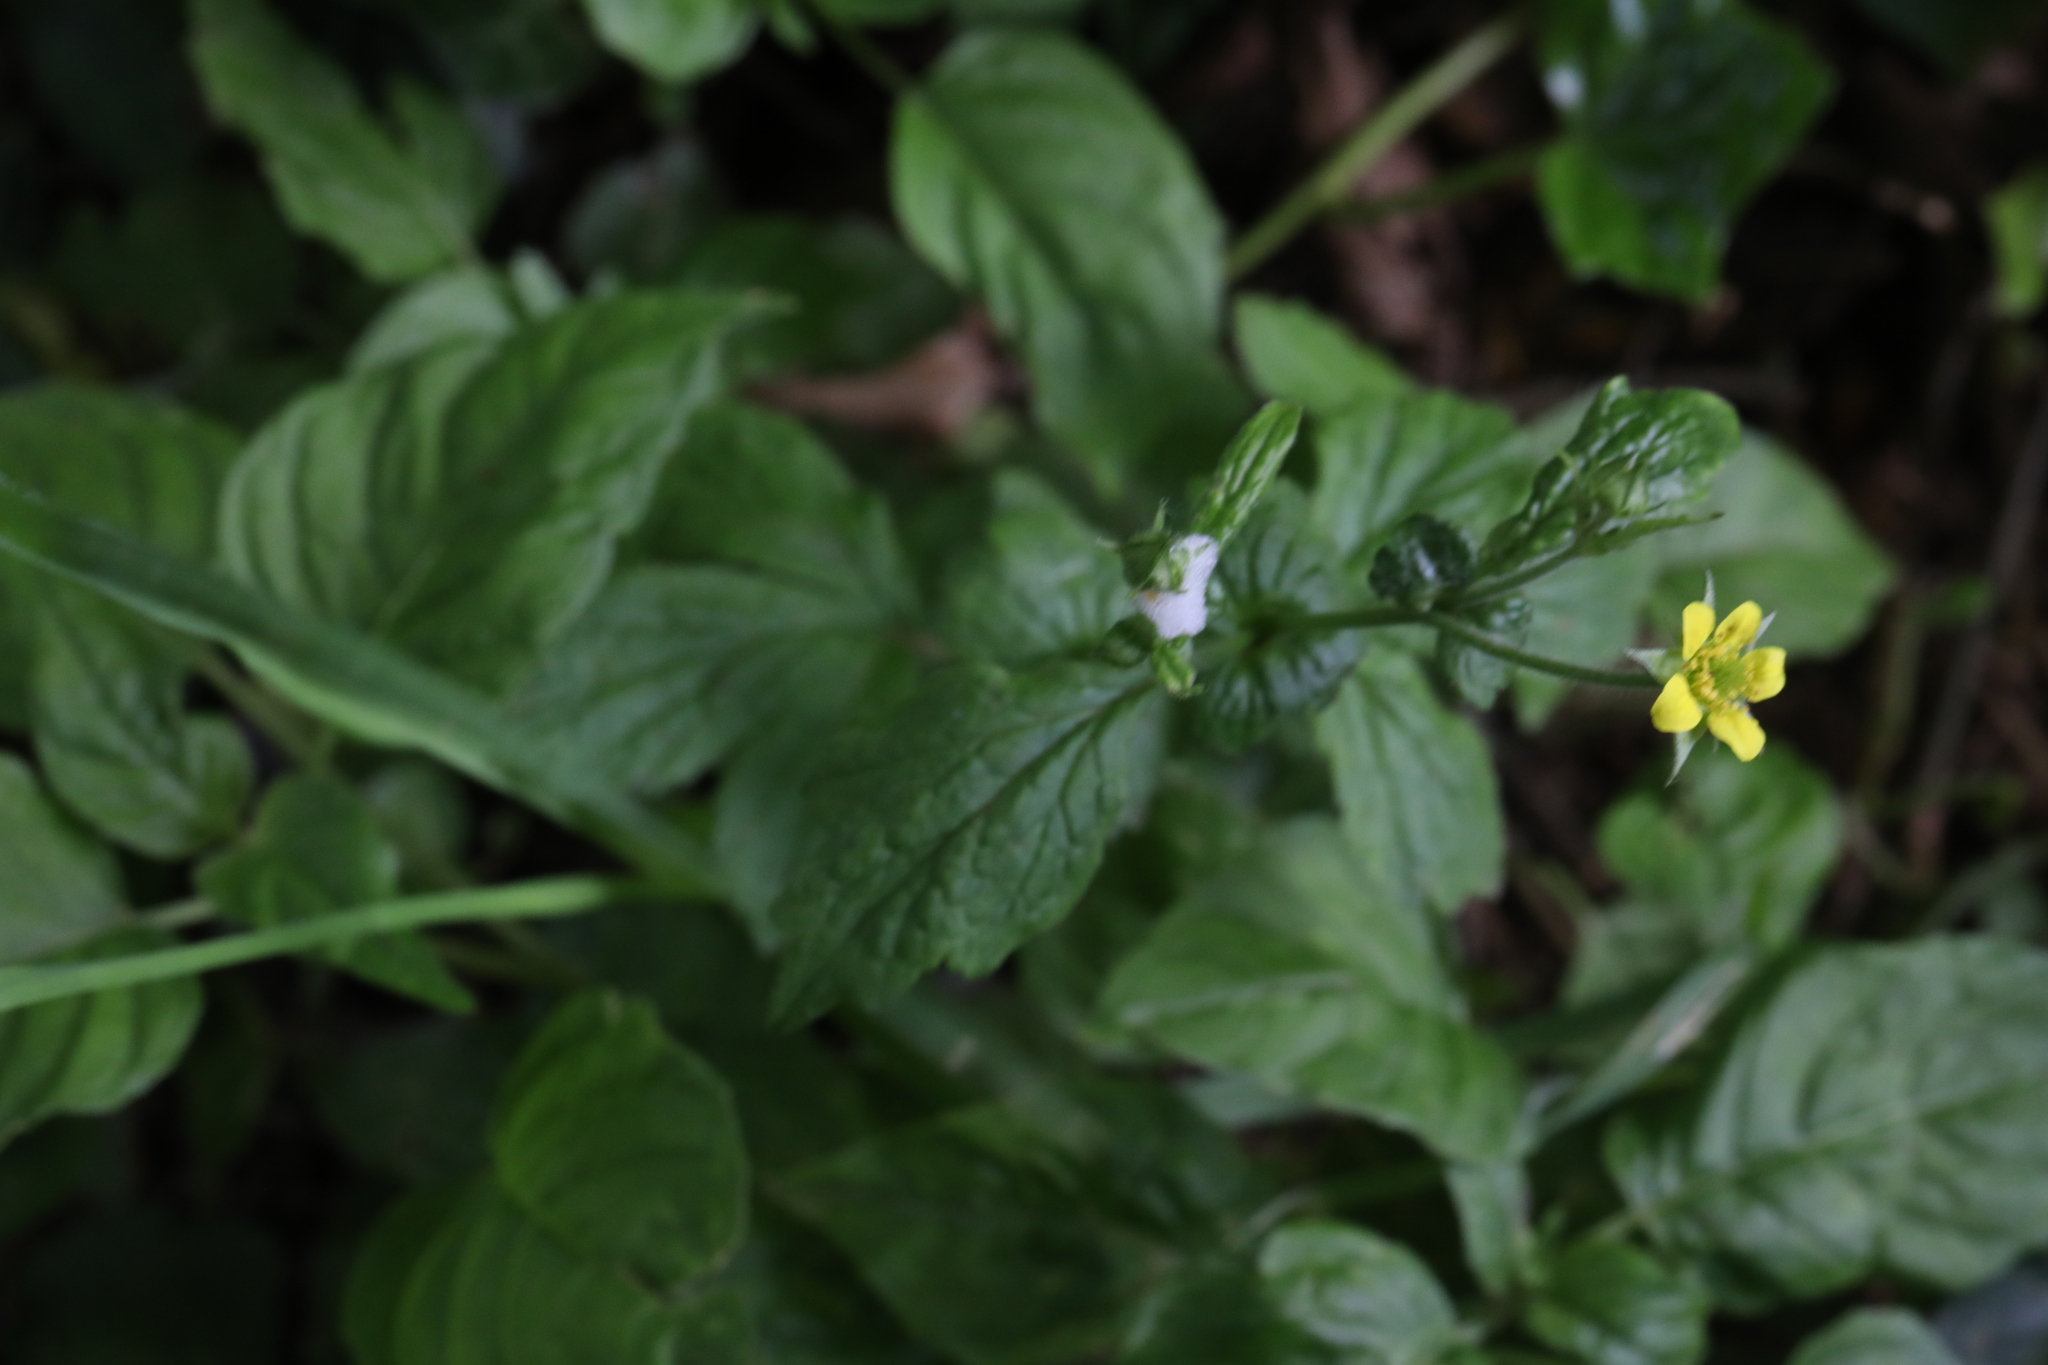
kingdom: Plantae
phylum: Tracheophyta
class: Magnoliopsida
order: Rosales
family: Rosaceae
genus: Geum
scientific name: Geum urbanum
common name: Wood avens
